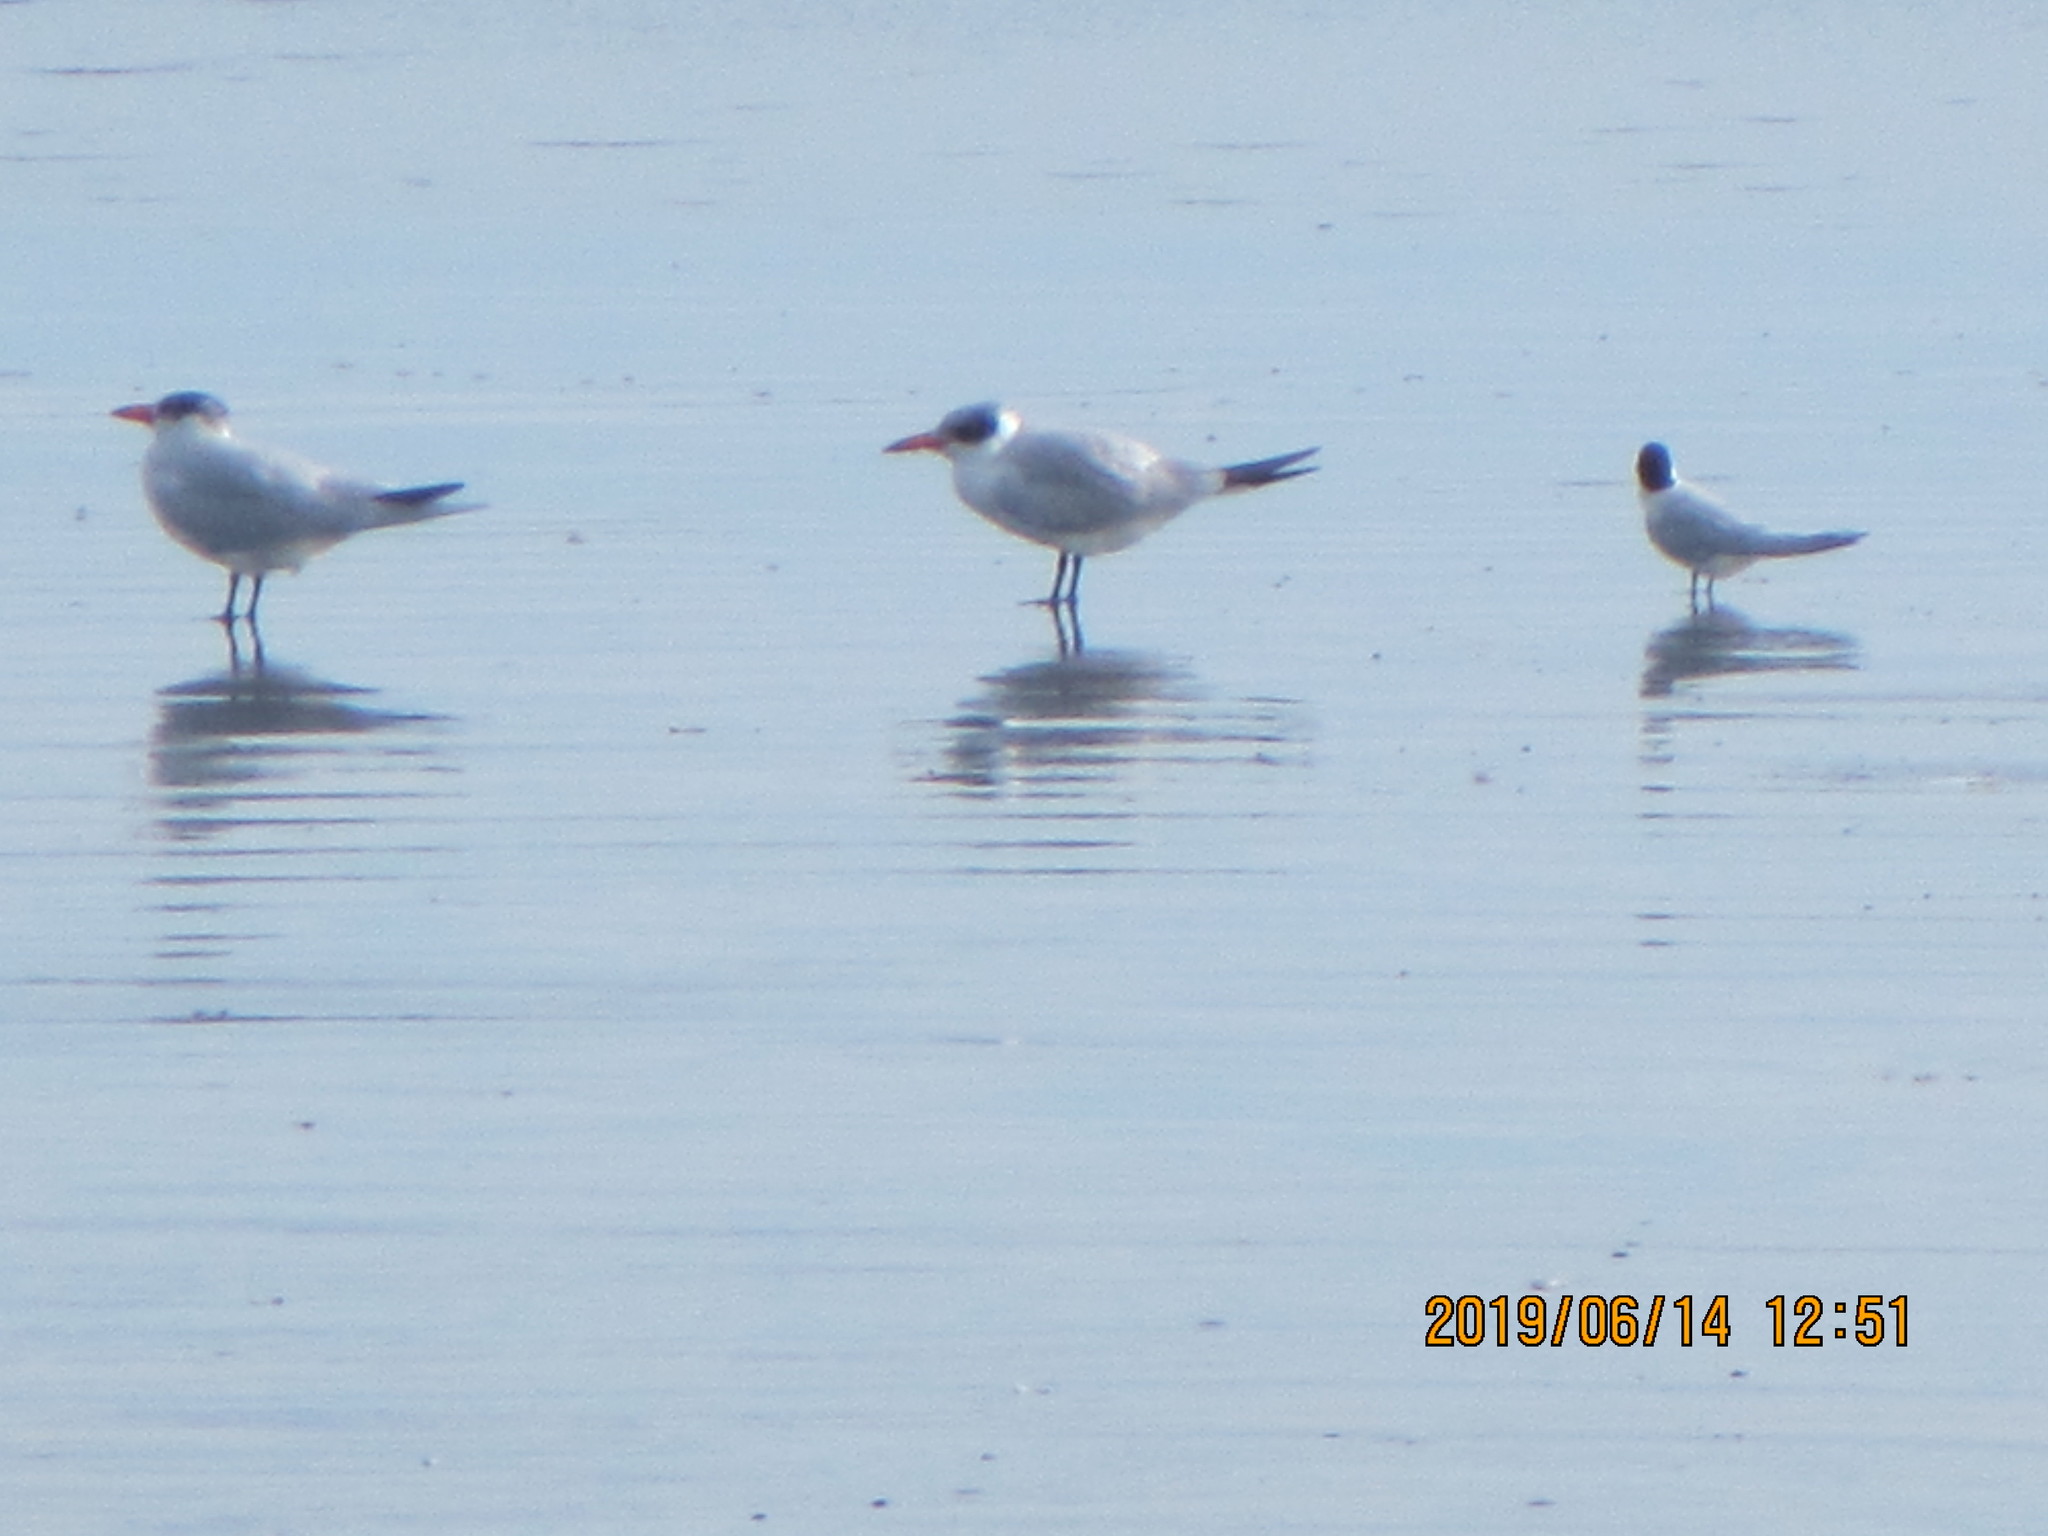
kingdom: Animalia
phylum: Chordata
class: Aves
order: Charadriiformes
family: Laridae
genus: Hydroprogne
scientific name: Hydroprogne caspia
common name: Caspian tern
